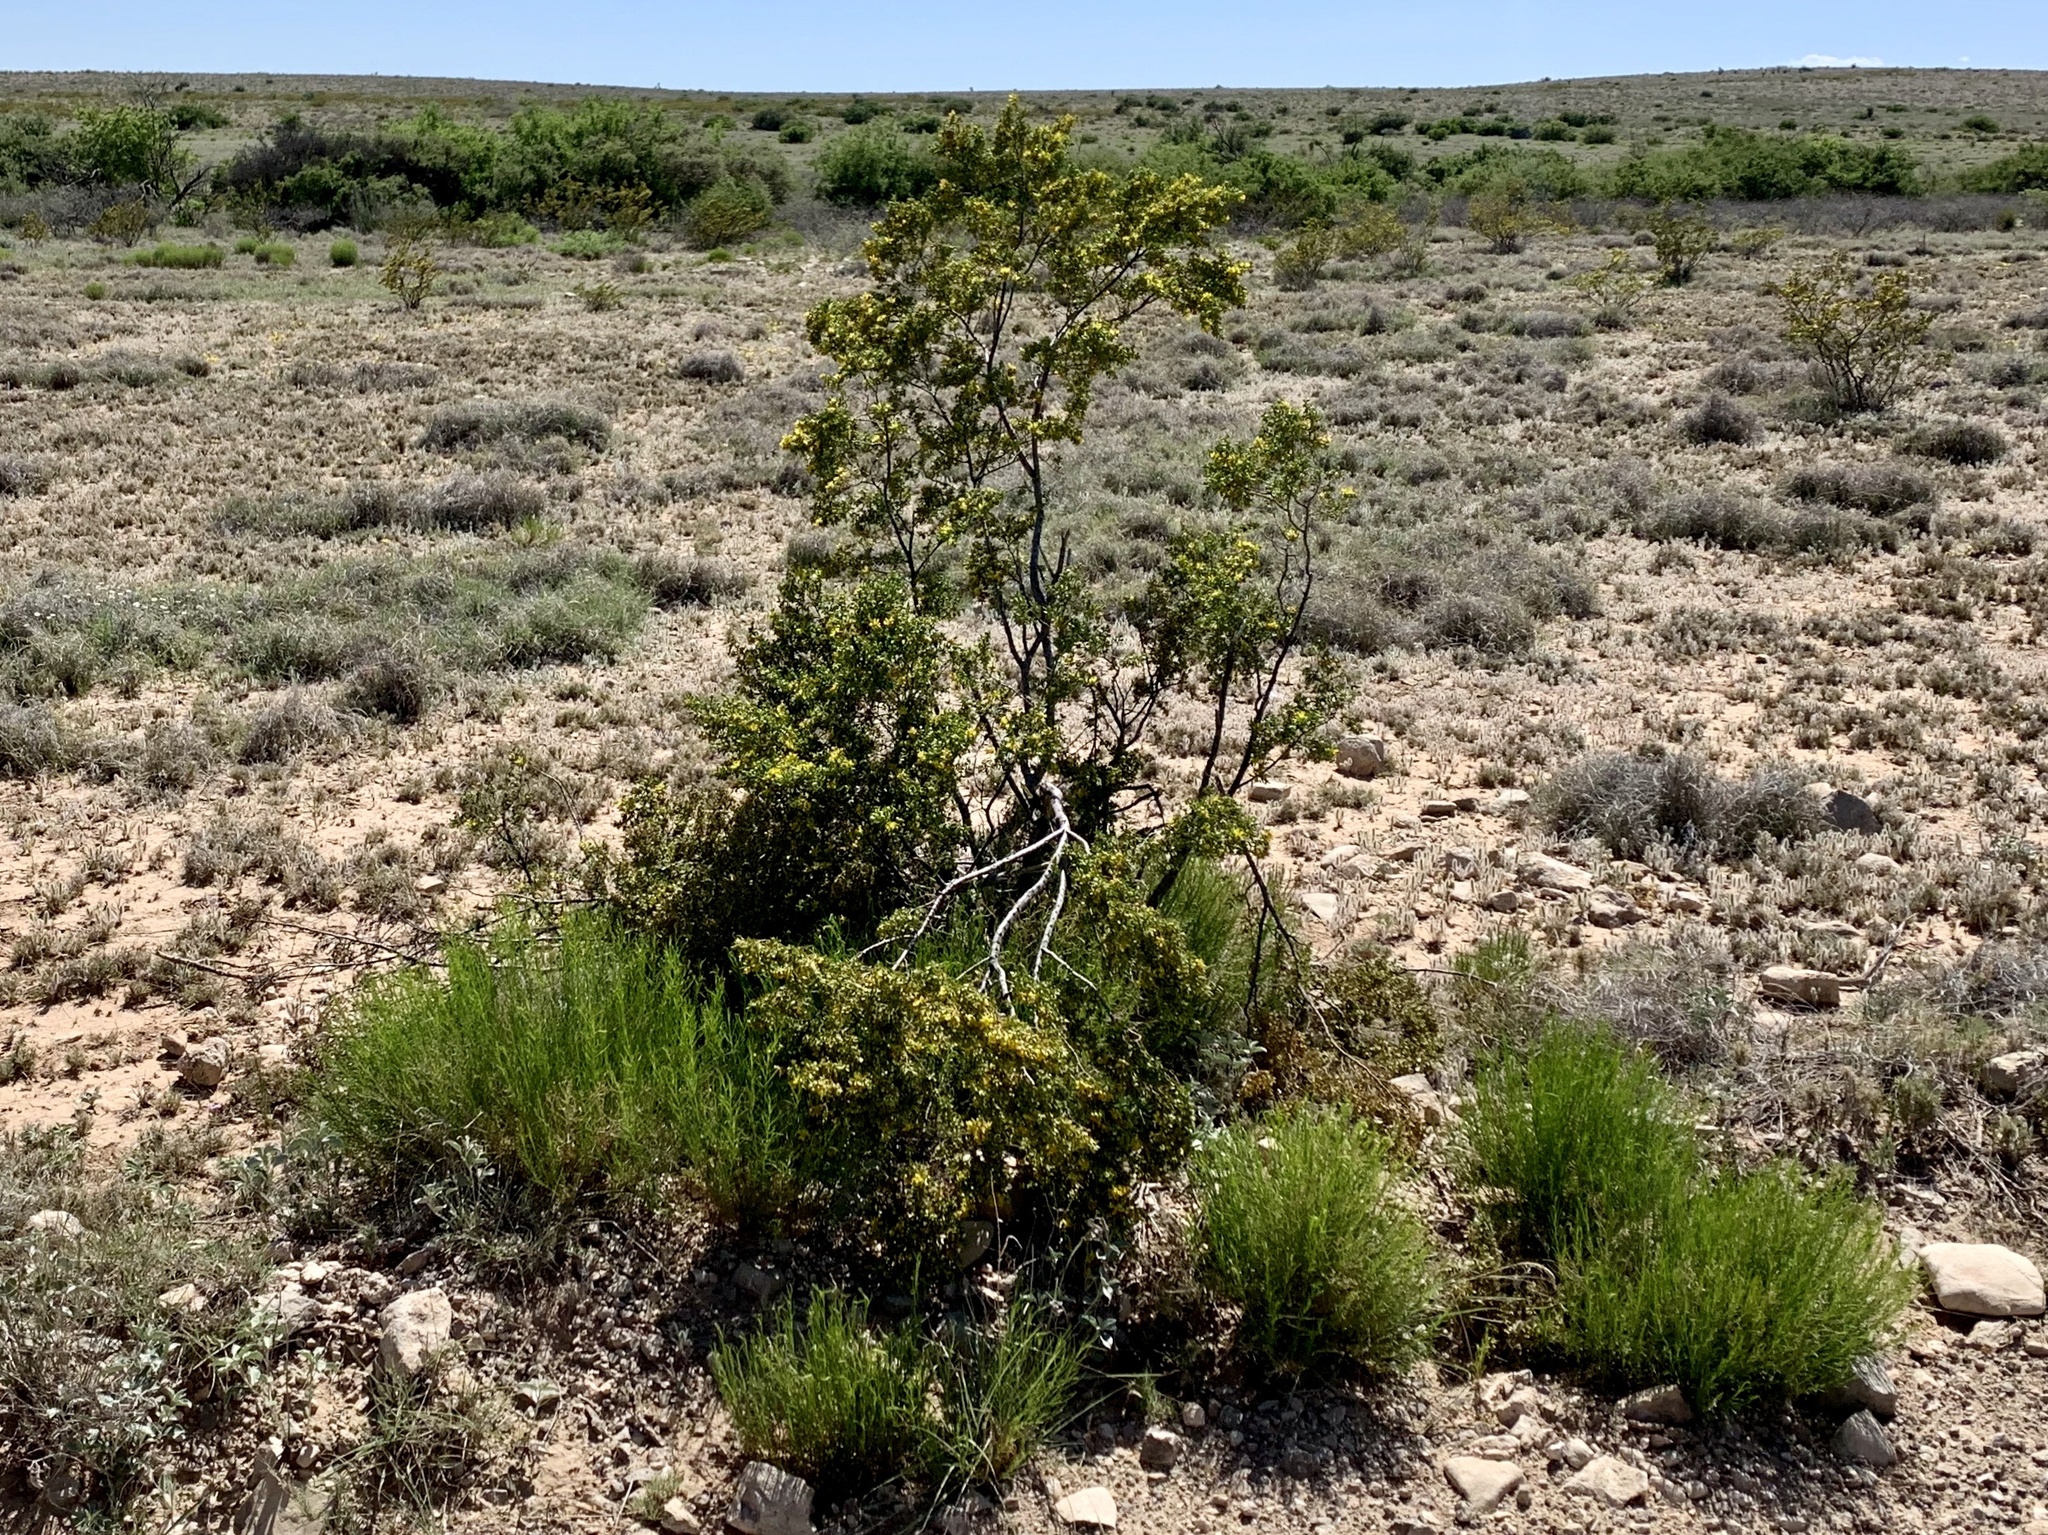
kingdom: Plantae
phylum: Tracheophyta
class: Magnoliopsida
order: Zygophyllales
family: Zygophyllaceae
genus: Larrea
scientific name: Larrea tridentata
